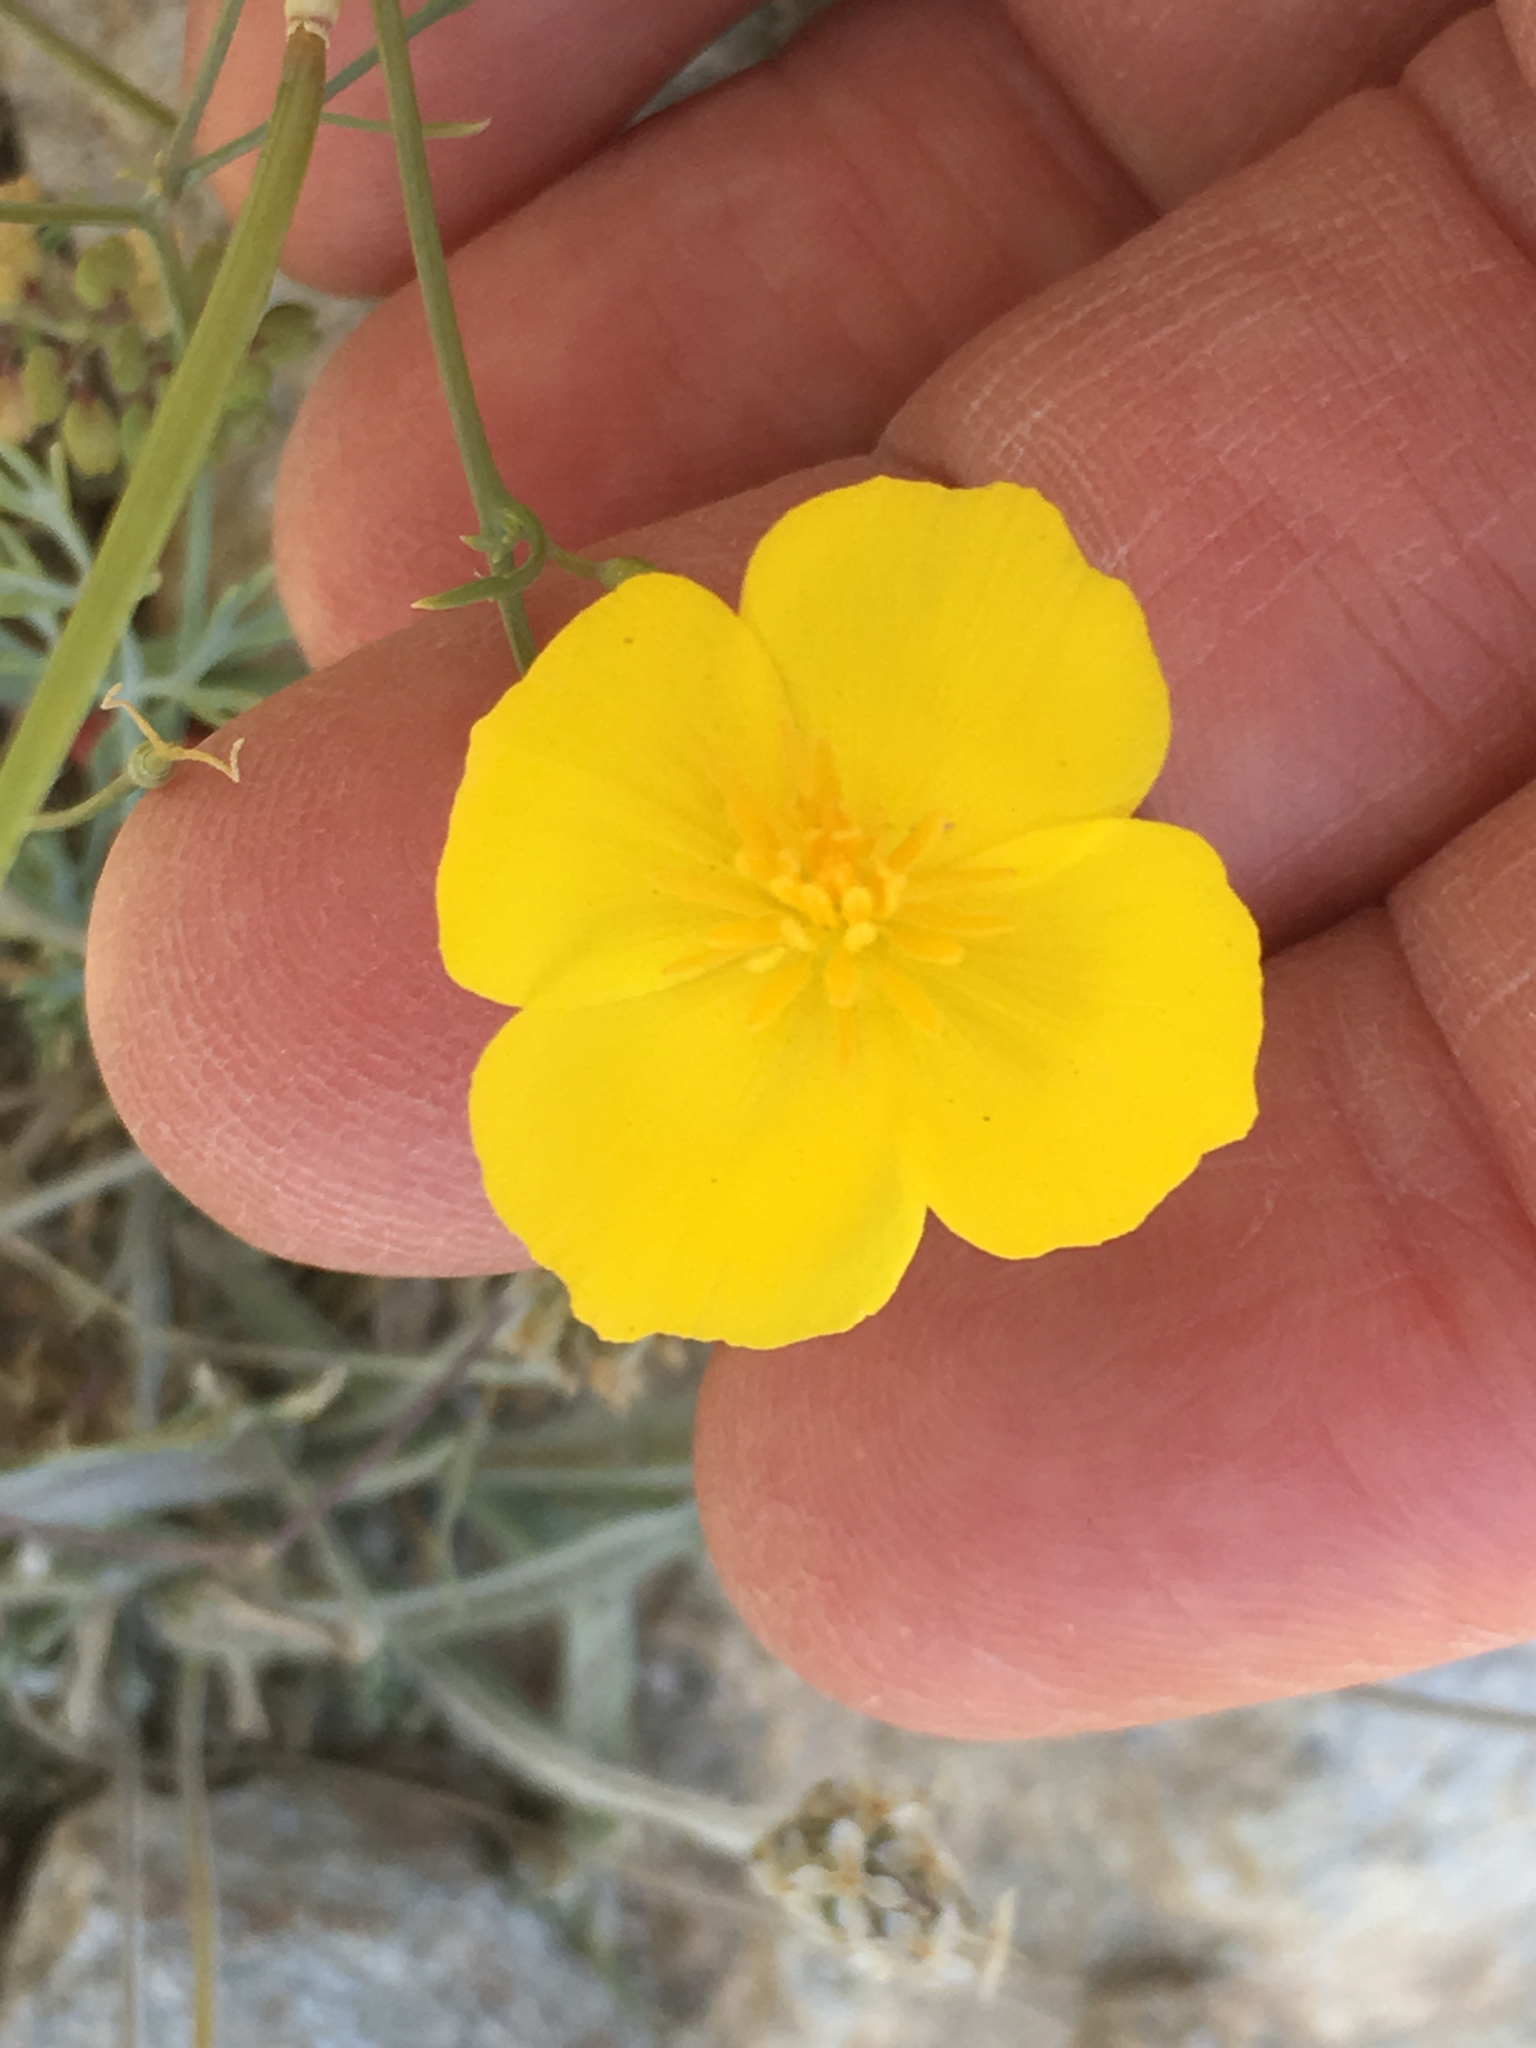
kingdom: Plantae
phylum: Tracheophyta
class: Magnoliopsida
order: Ranunculales
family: Papaveraceae
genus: Eschscholzia
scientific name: Eschscholzia parishii
